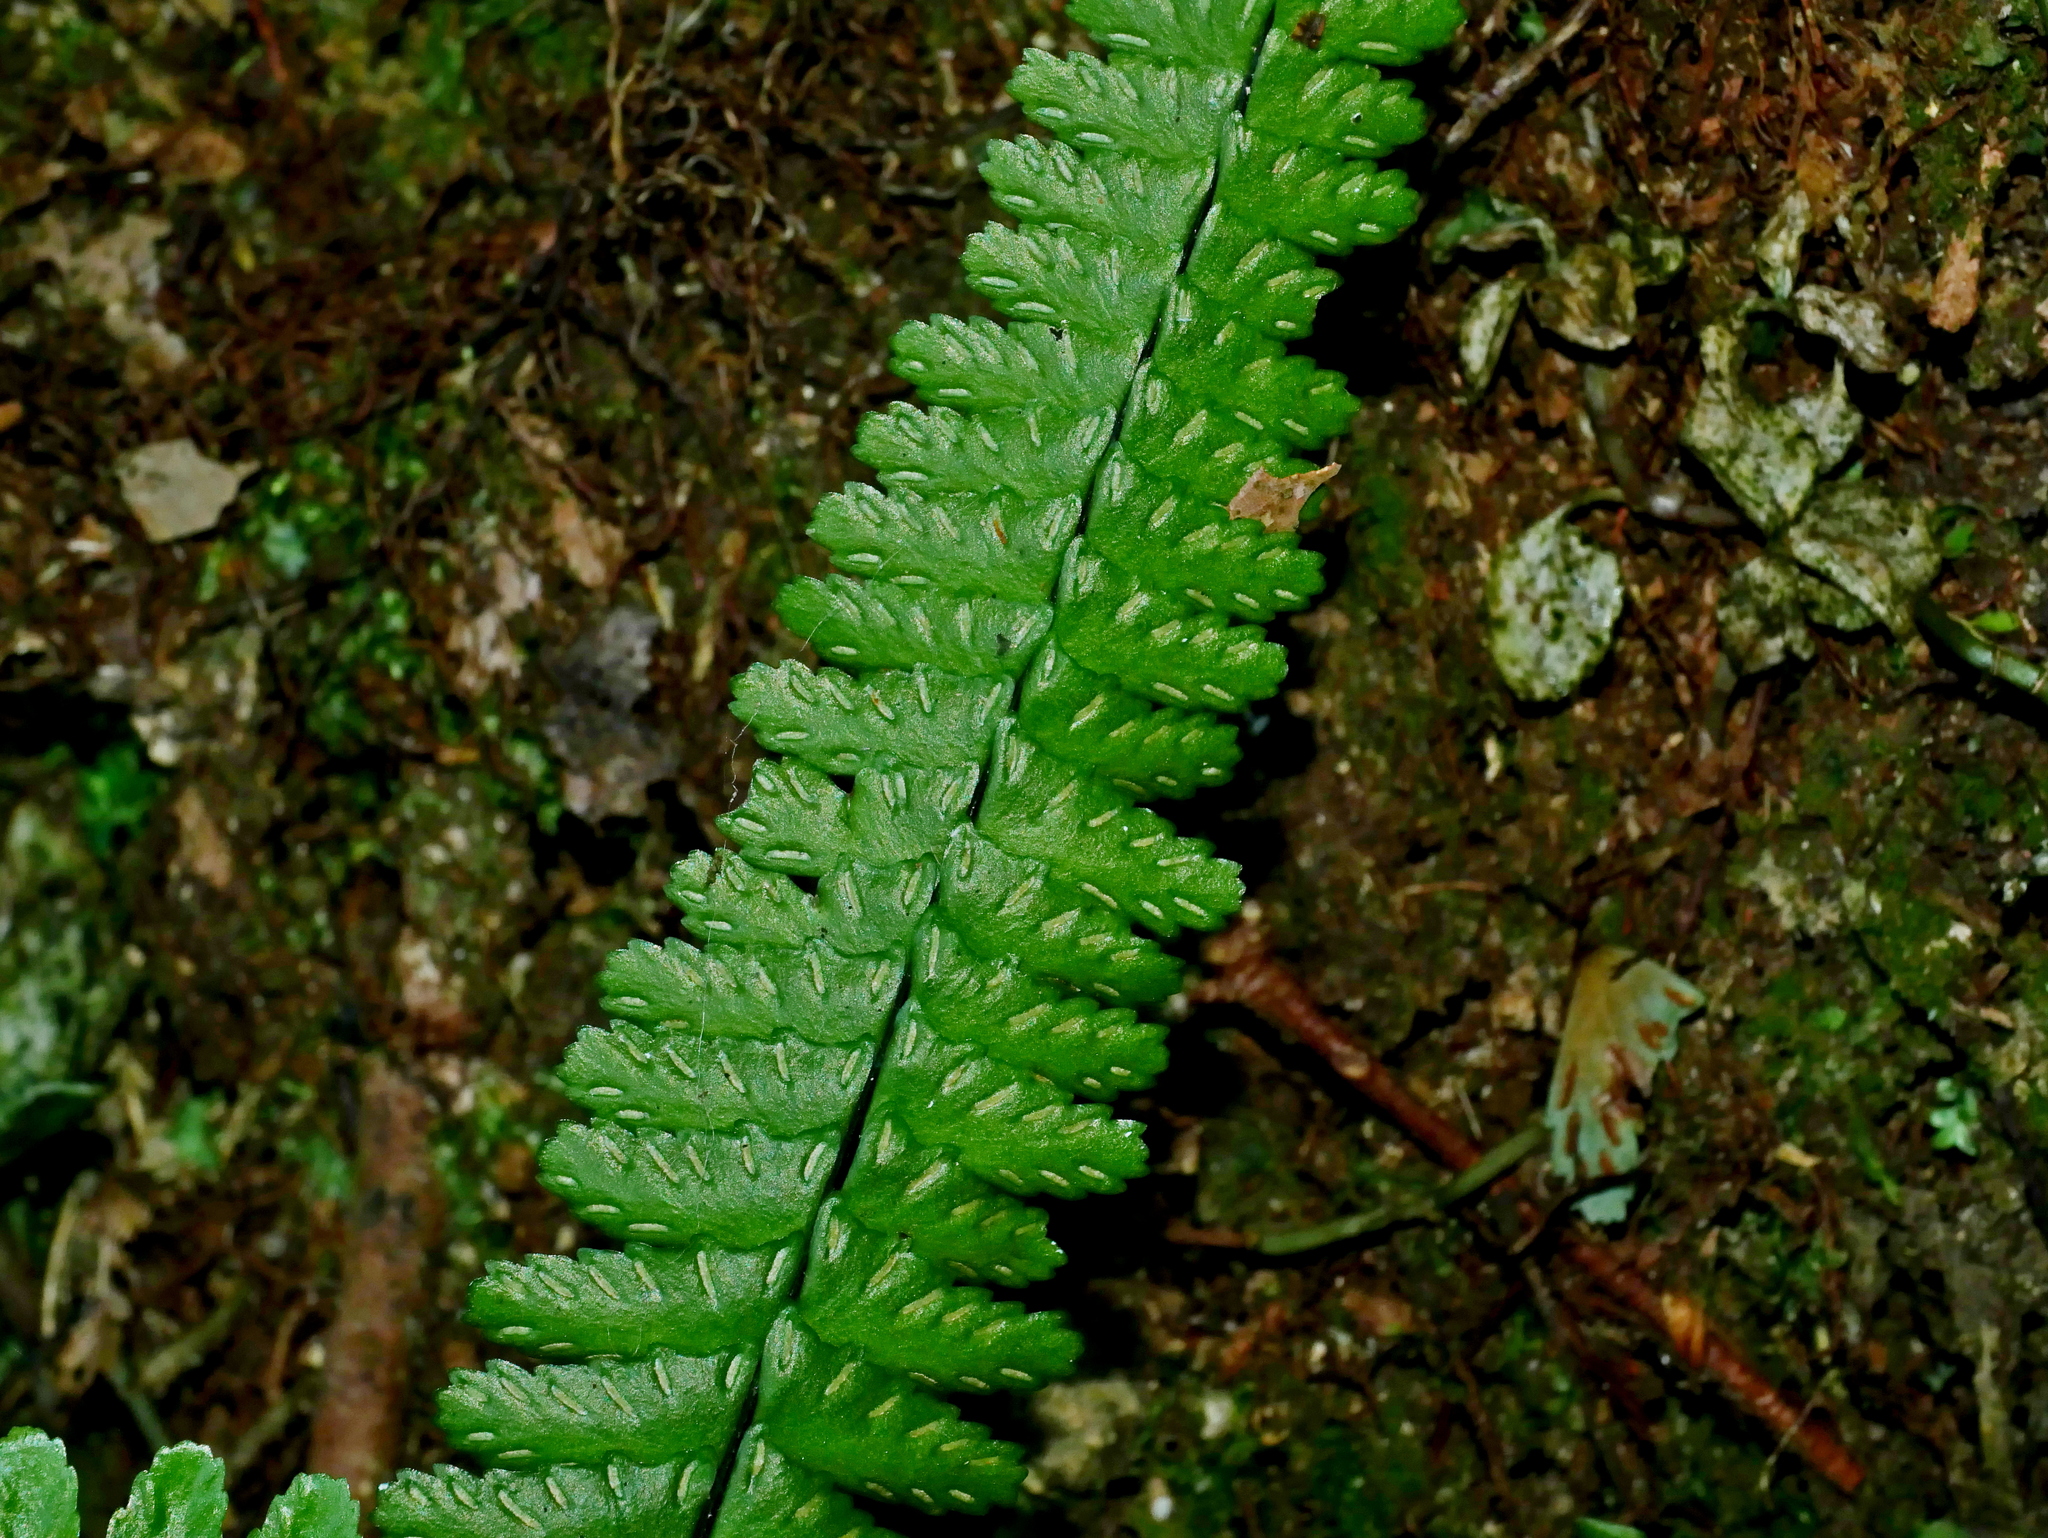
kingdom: Plantae
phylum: Tracheophyta
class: Polypodiopsida
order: Polypodiales
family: Aspleniaceae
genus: Asplenium
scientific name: Asplenium normale
